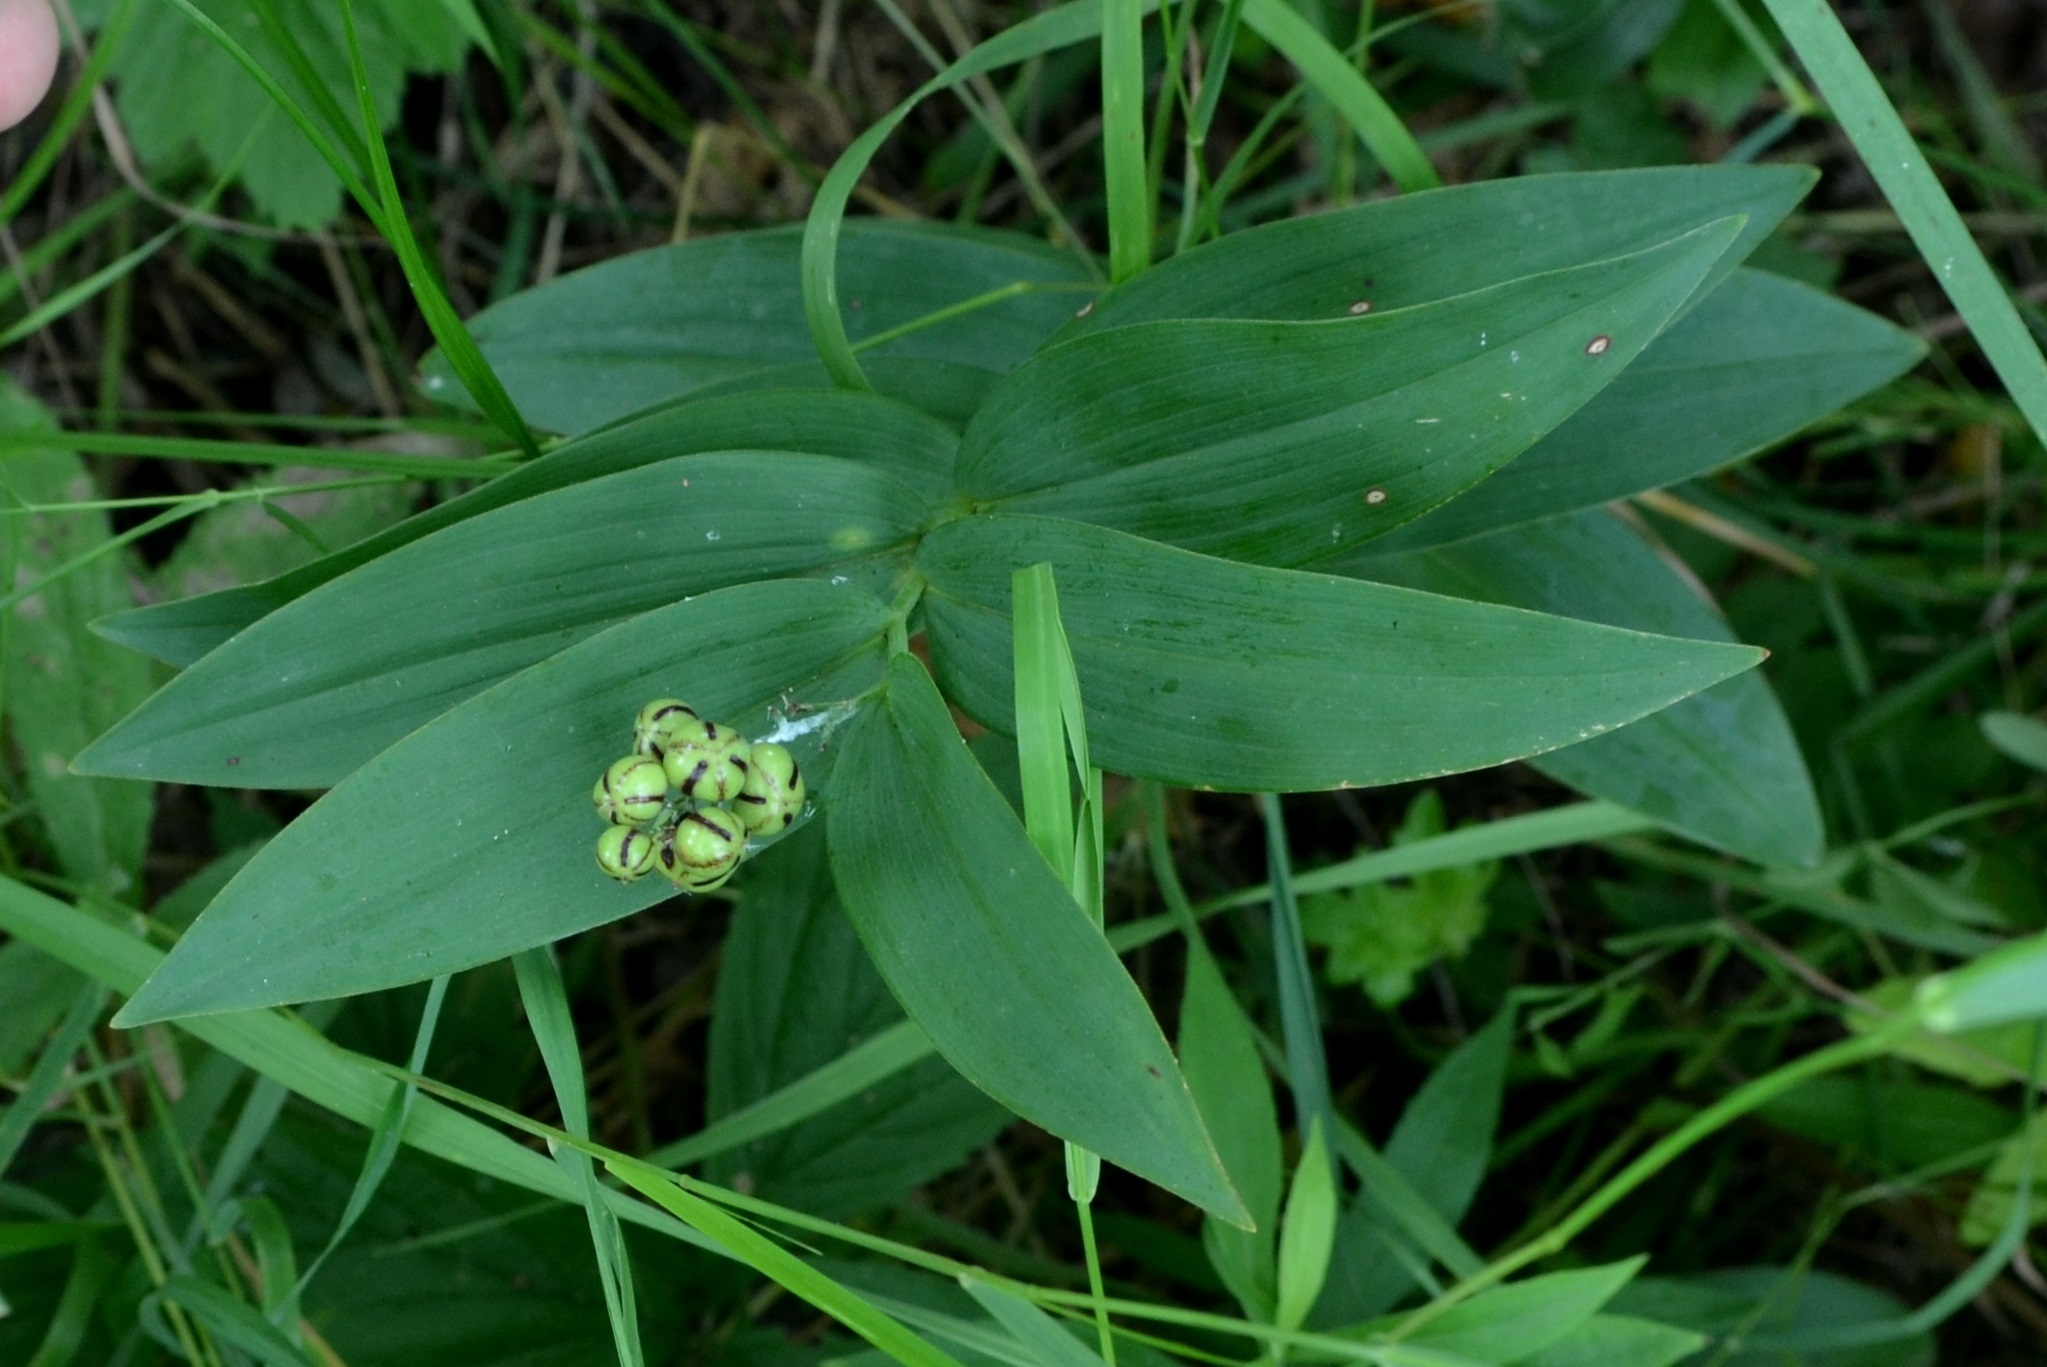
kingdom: Plantae
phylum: Tracheophyta
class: Liliopsida
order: Asparagales
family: Asparagaceae
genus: Maianthemum
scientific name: Maianthemum stellatum
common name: Little false solomon's seal
